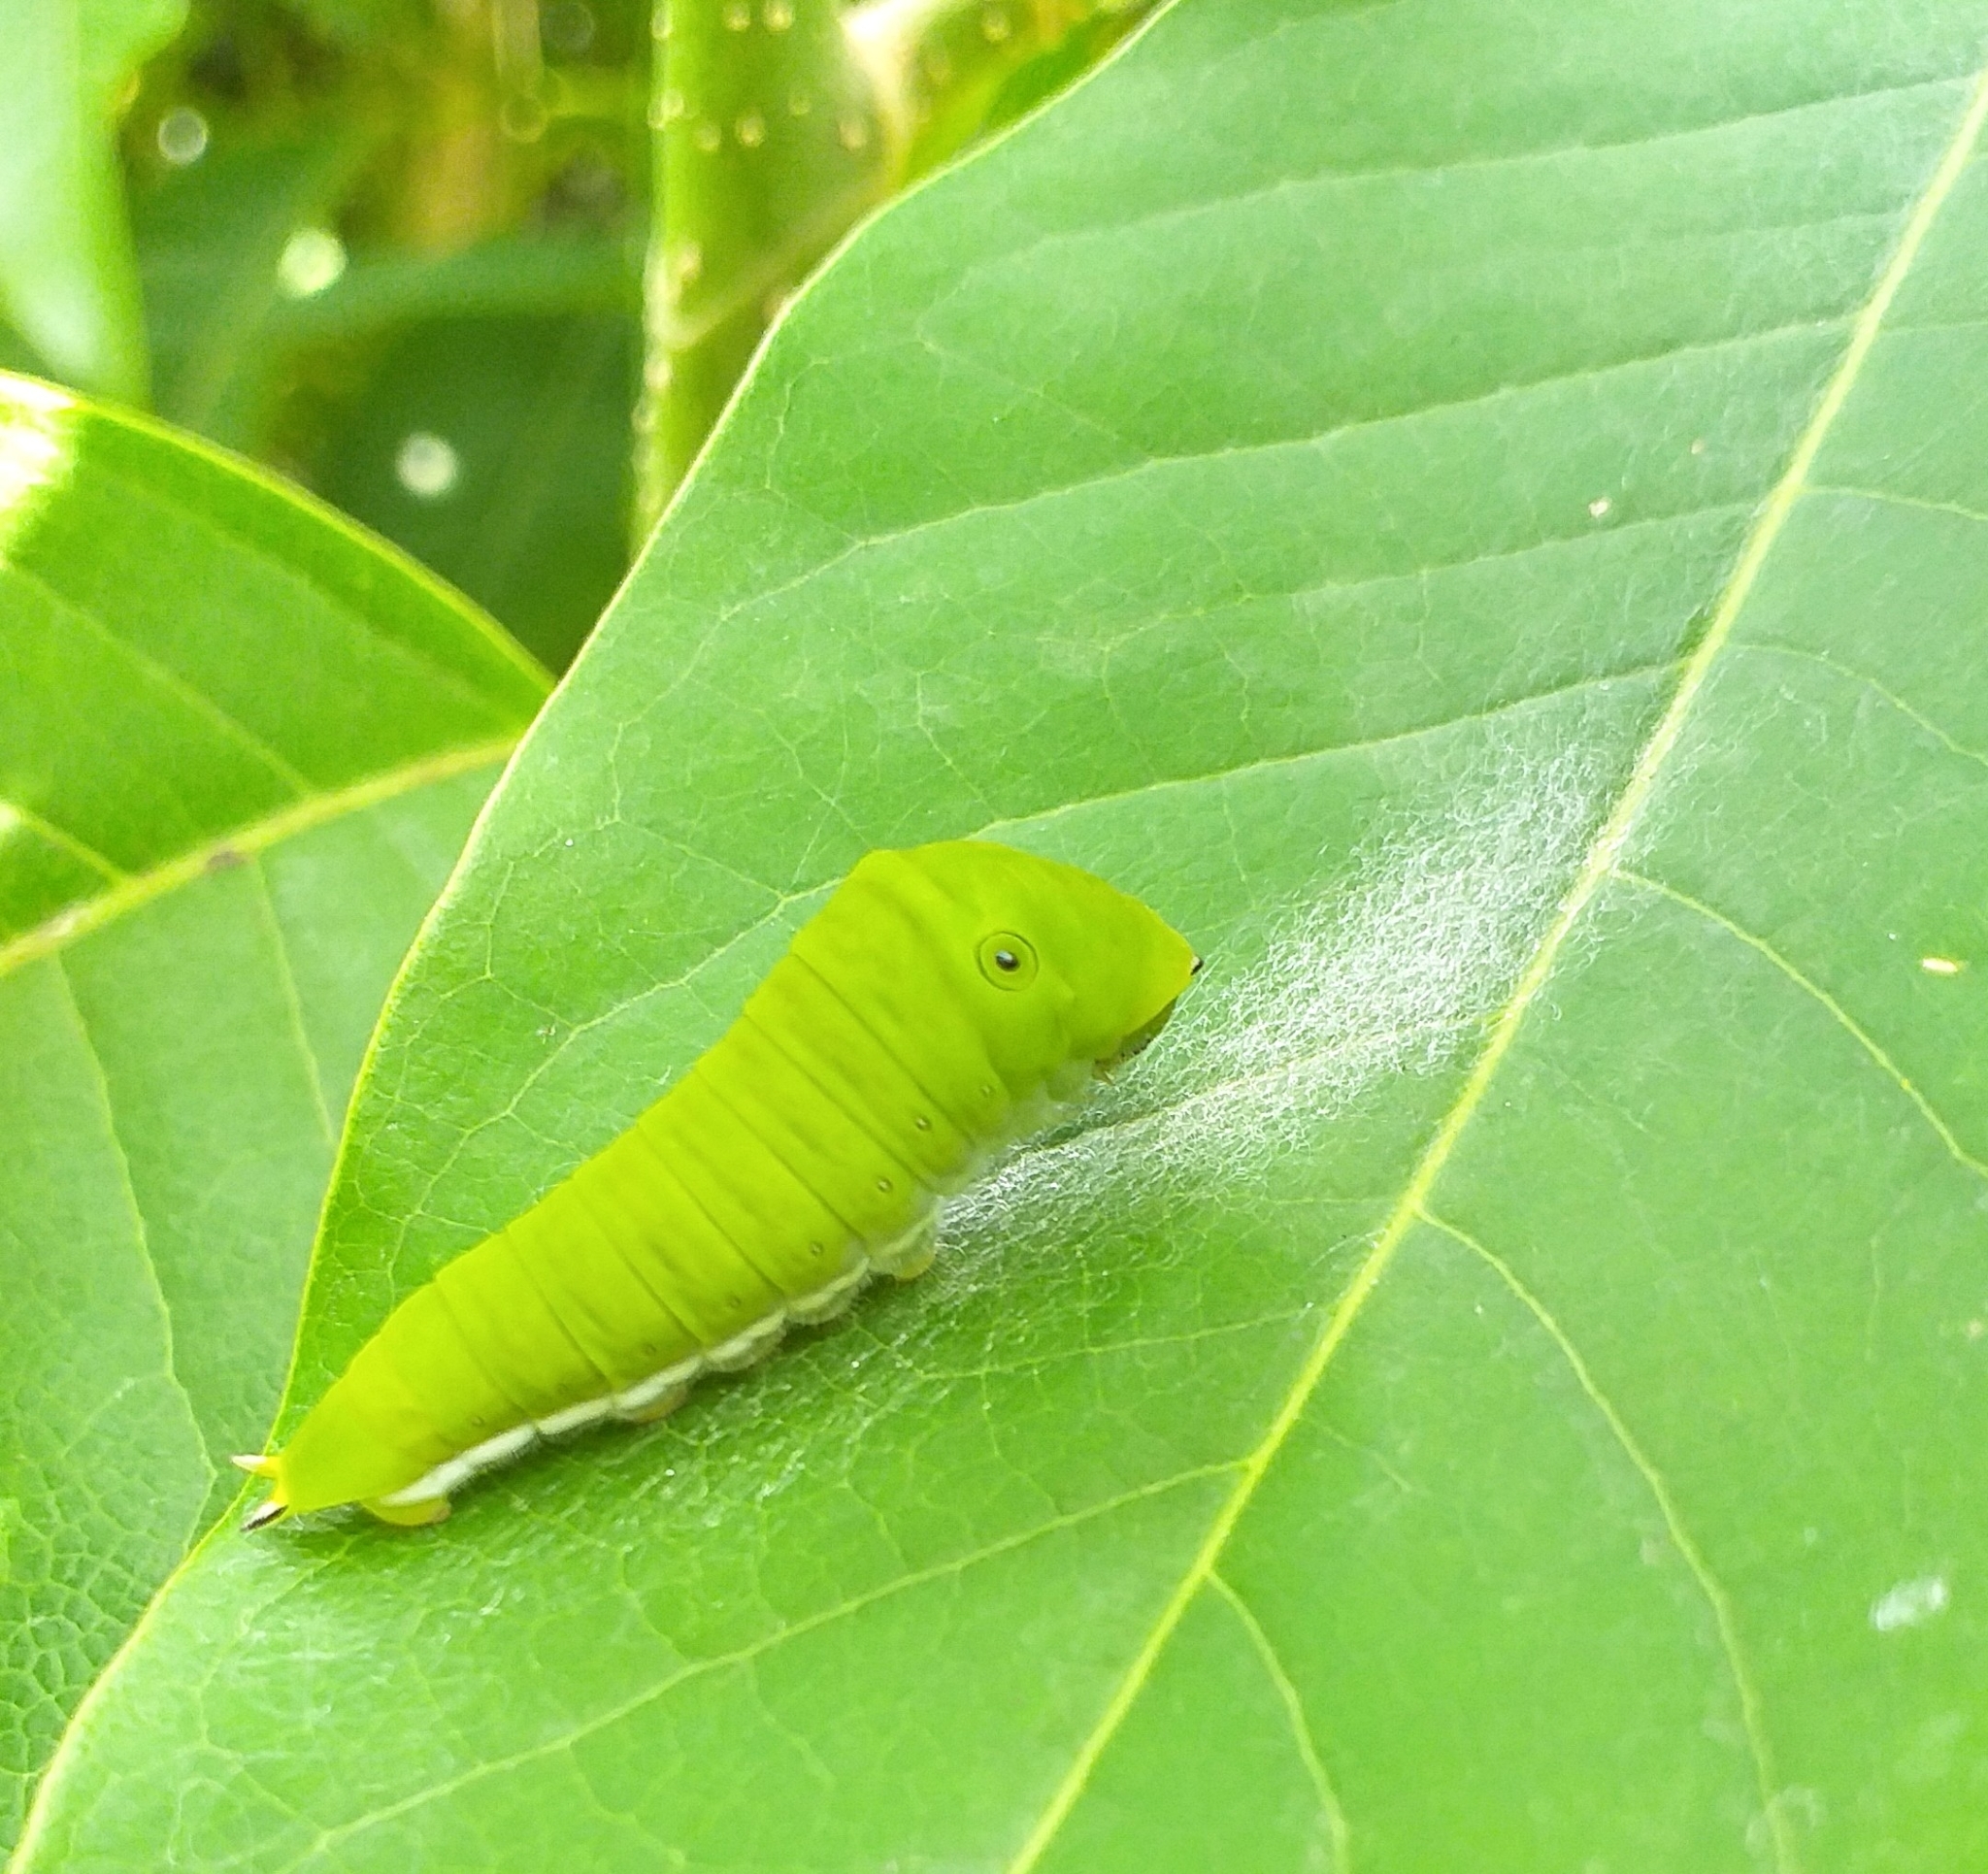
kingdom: Animalia
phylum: Arthropoda
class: Insecta
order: Lepidoptera
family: Papilionidae
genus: Graphium
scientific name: Graphium doson
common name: Common jay
